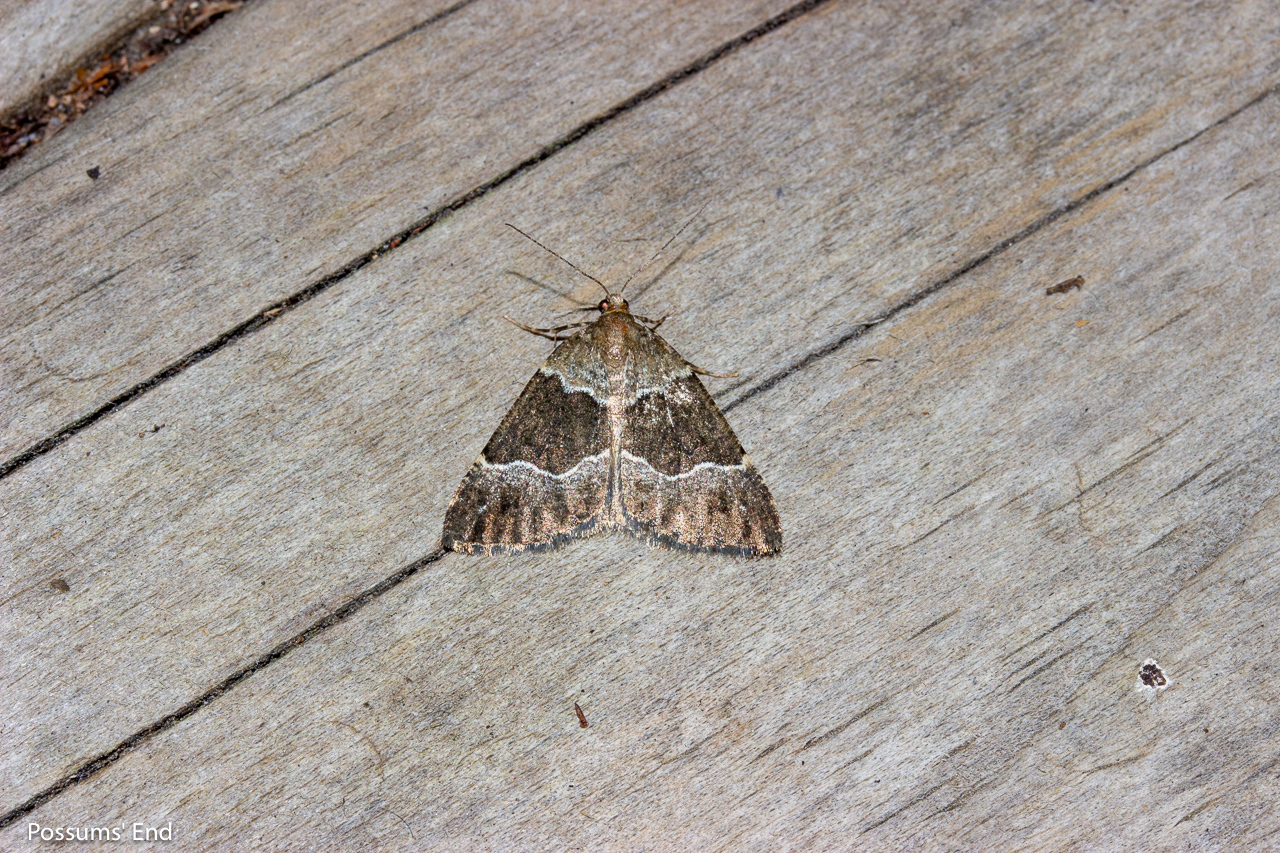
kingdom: Animalia
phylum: Arthropoda
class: Insecta
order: Lepidoptera
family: Geometridae
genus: Pseudocoremia
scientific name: Pseudocoremia
